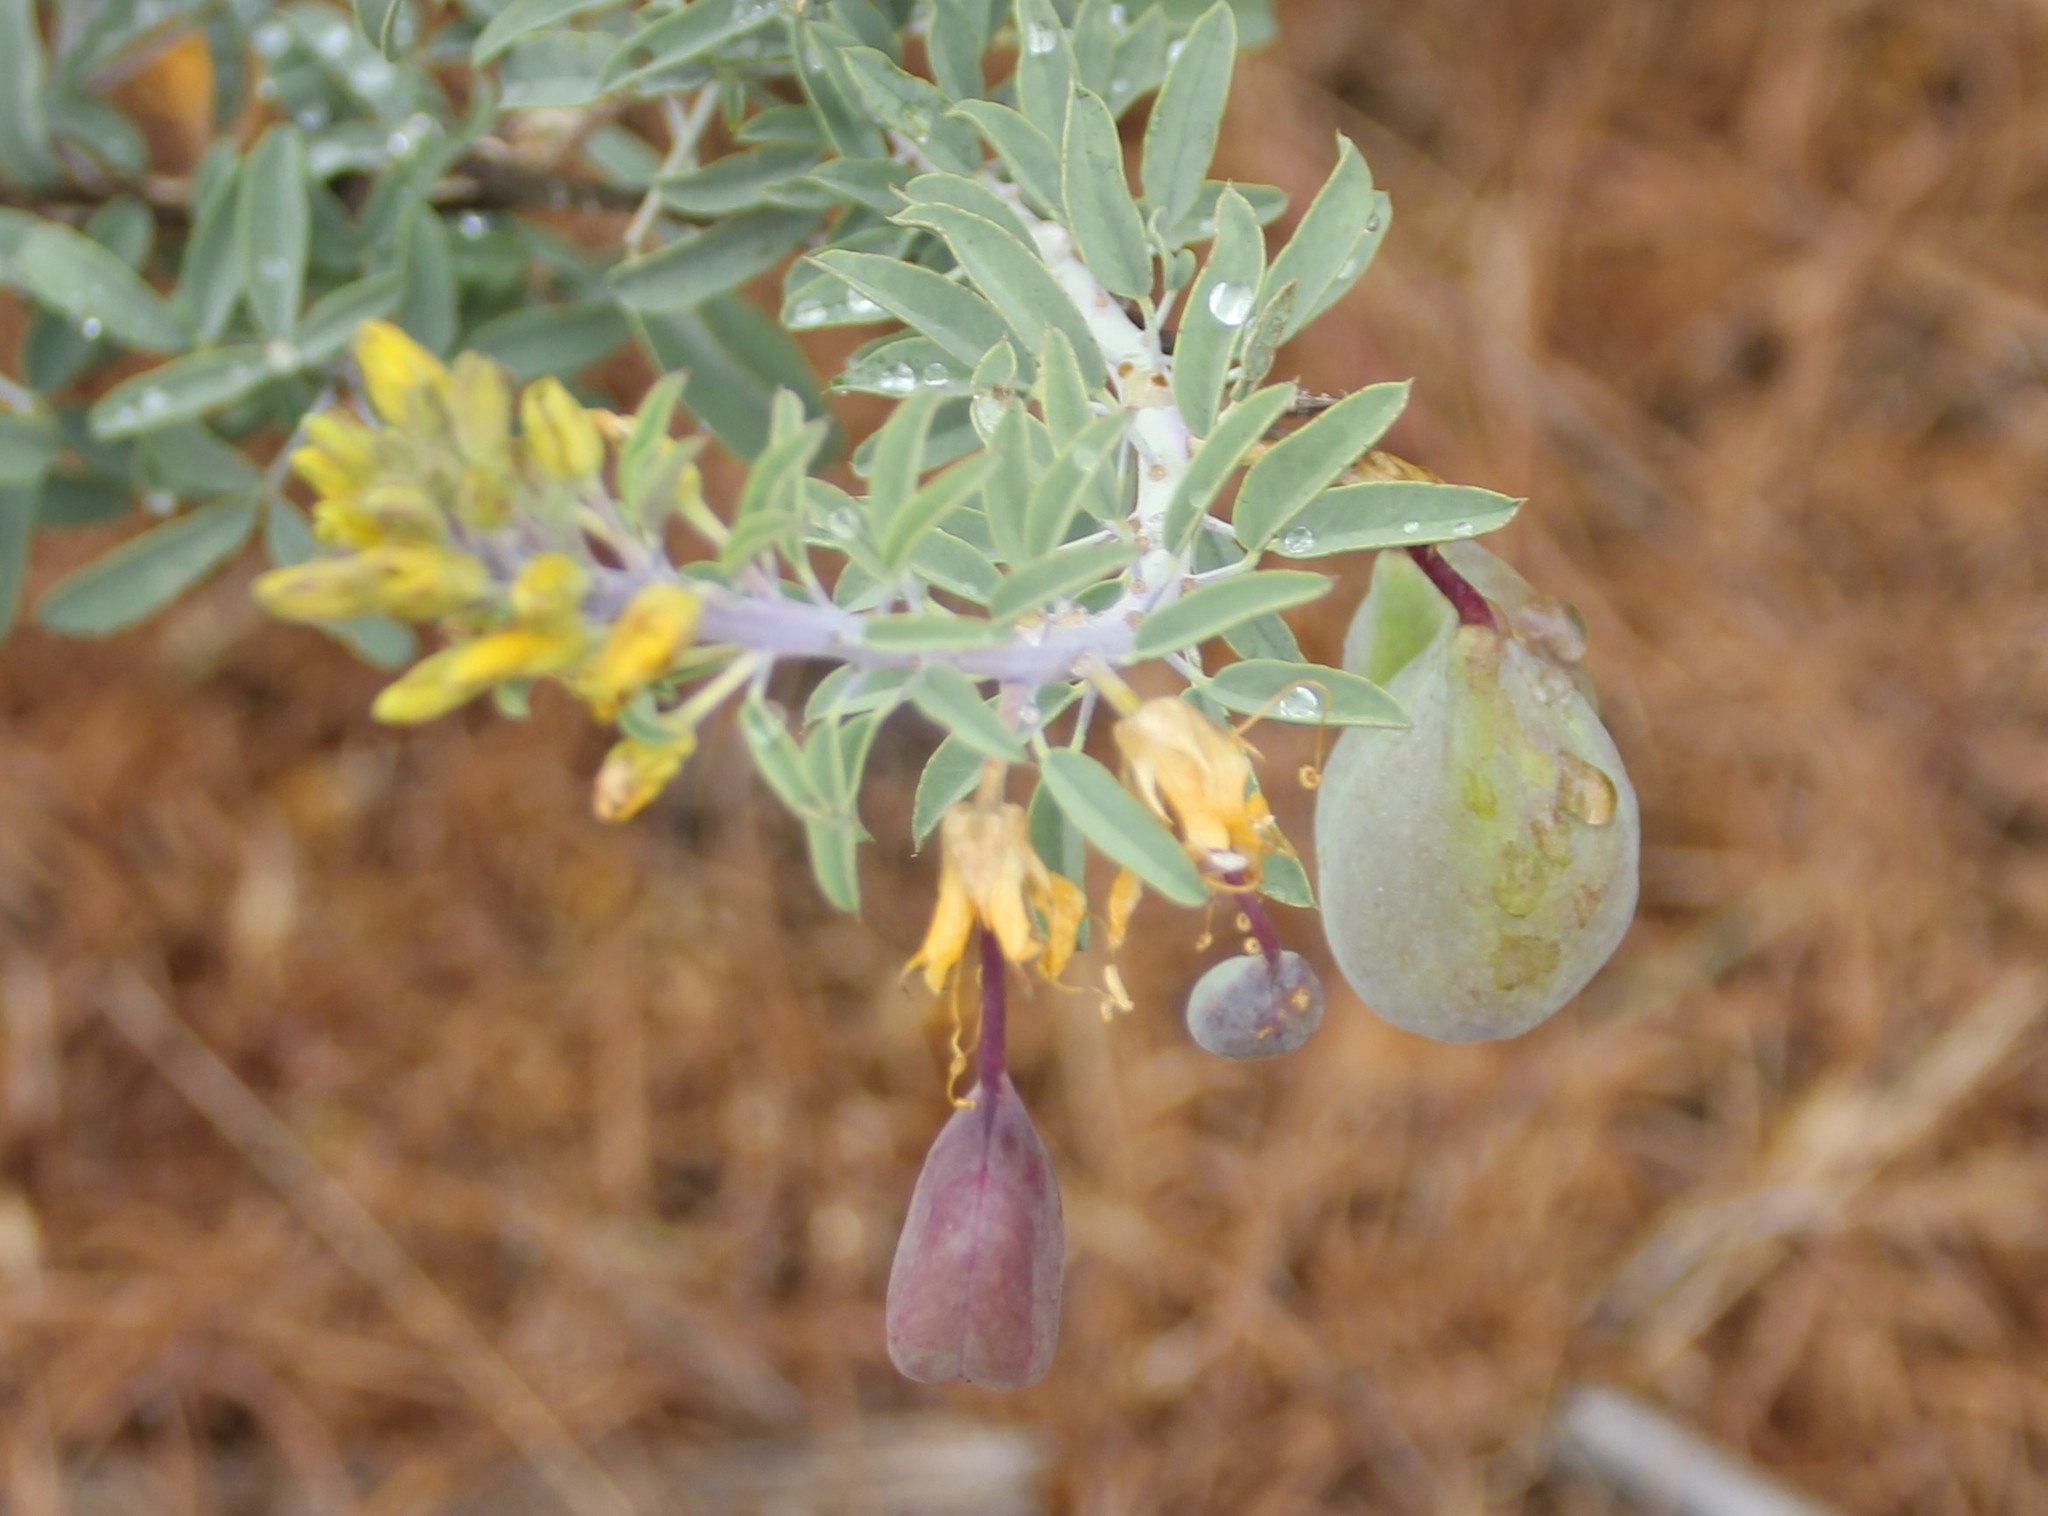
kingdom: Plantae
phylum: Tracheophyta
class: Magnoliopsida
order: Brassicales
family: Cleomaceae
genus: Cleomella
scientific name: Cleomella arborea
